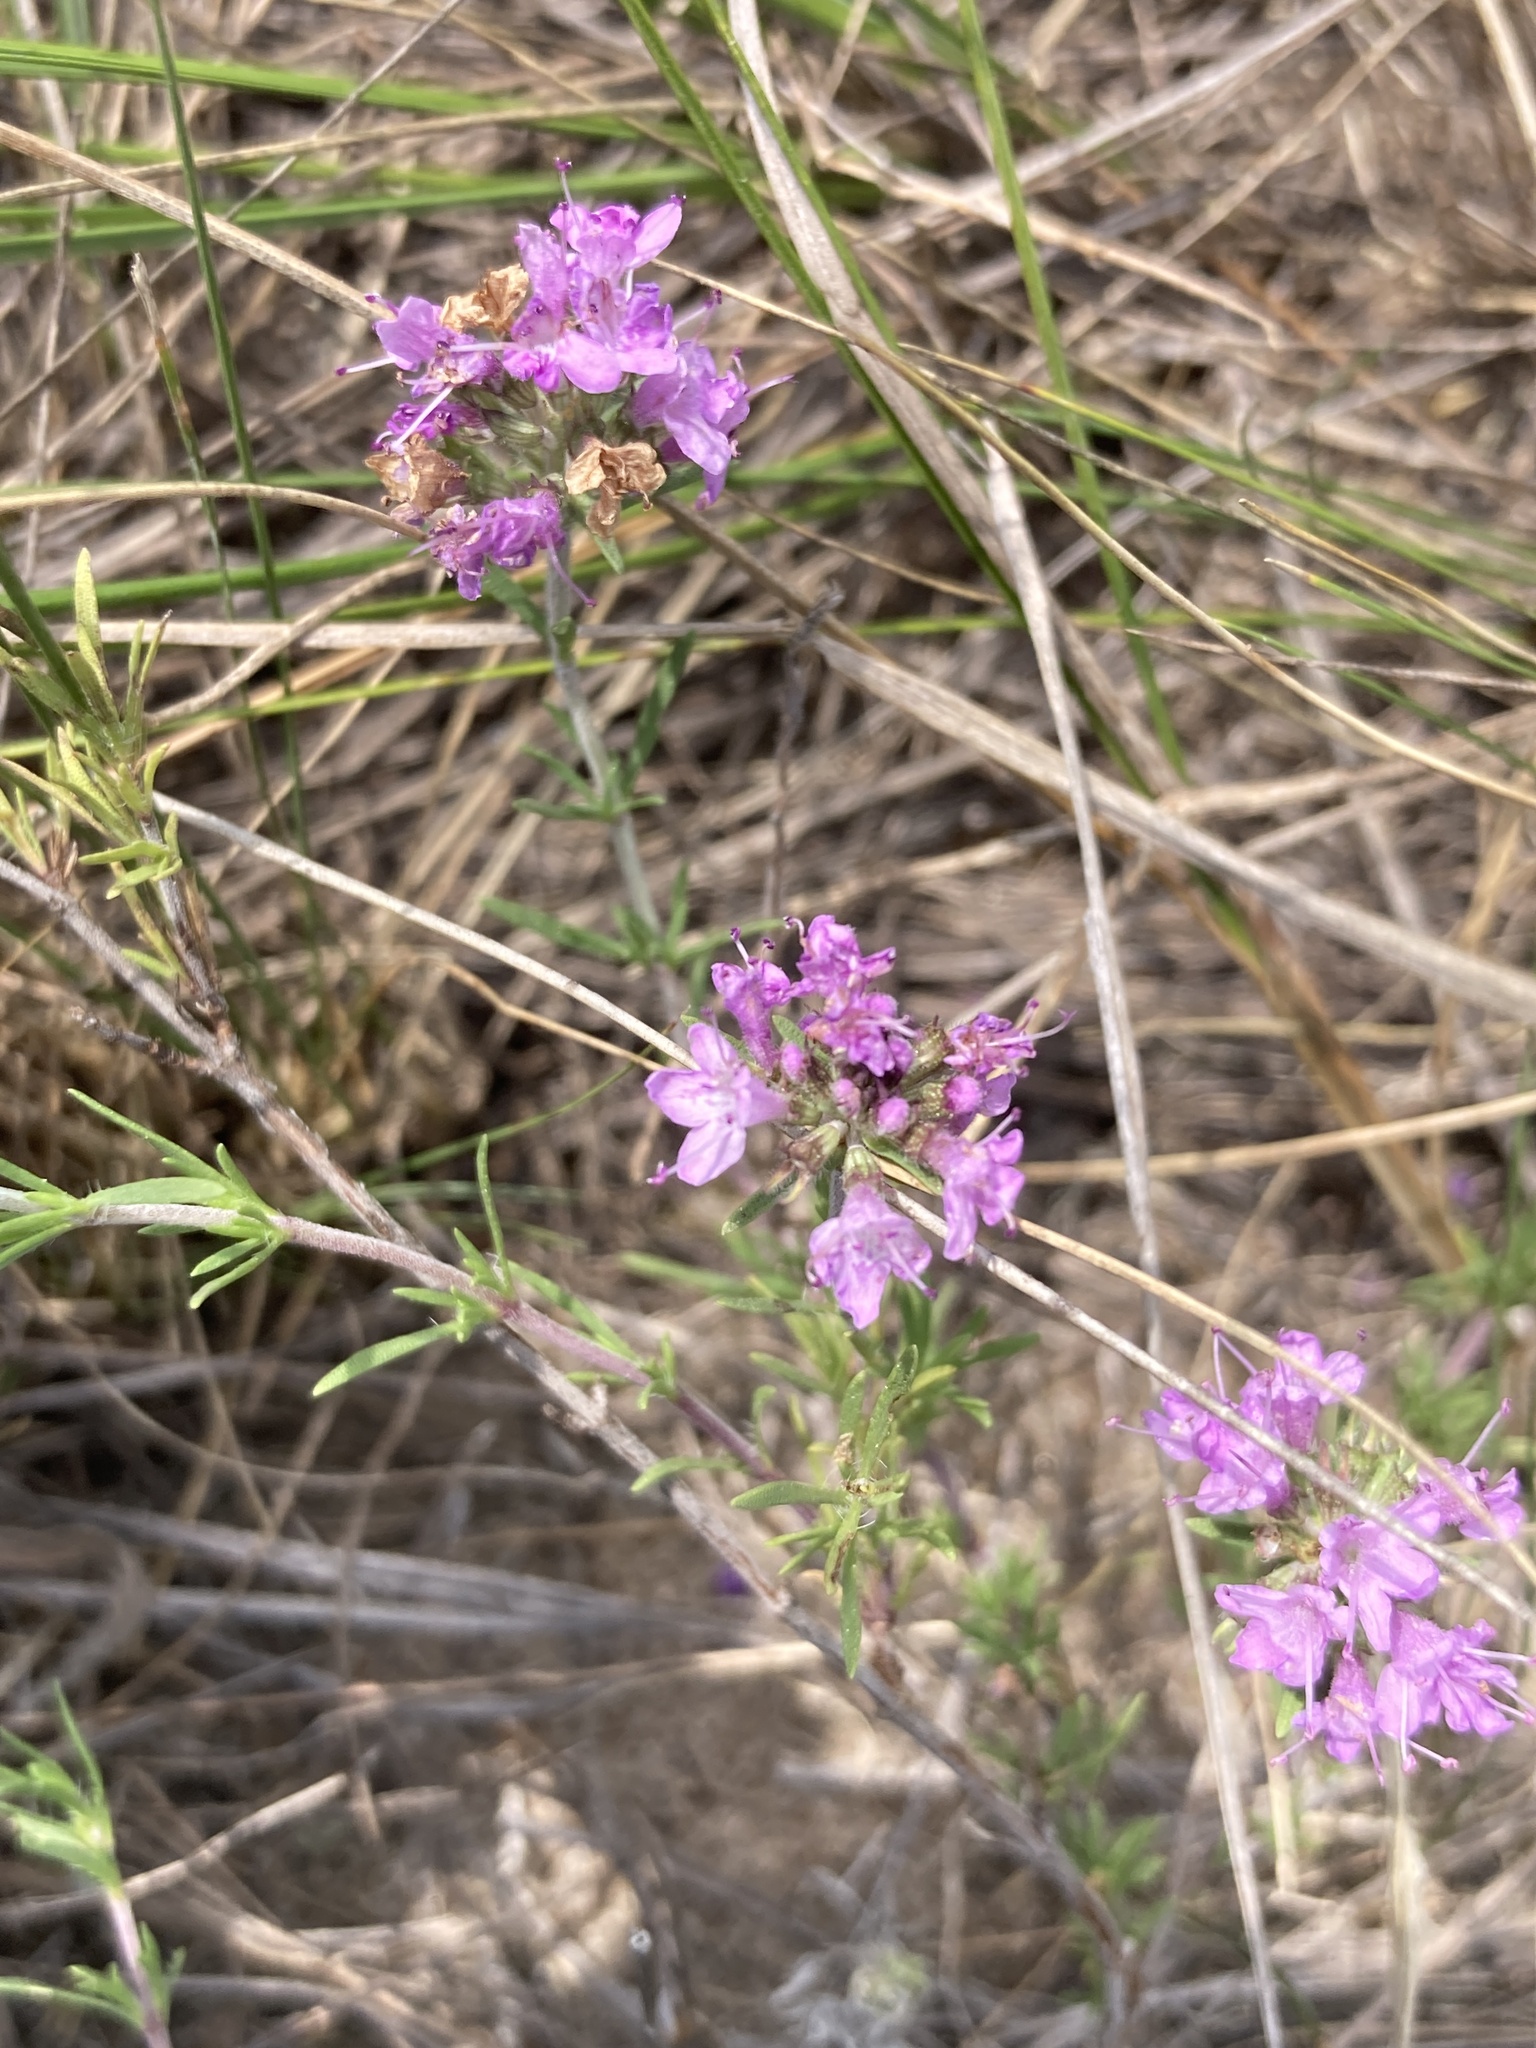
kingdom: Plantae
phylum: Tracheophyta
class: Magnoliopsida
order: Lamiales
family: Lamiaceae
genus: Thymus
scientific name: Thymus pallasianus
